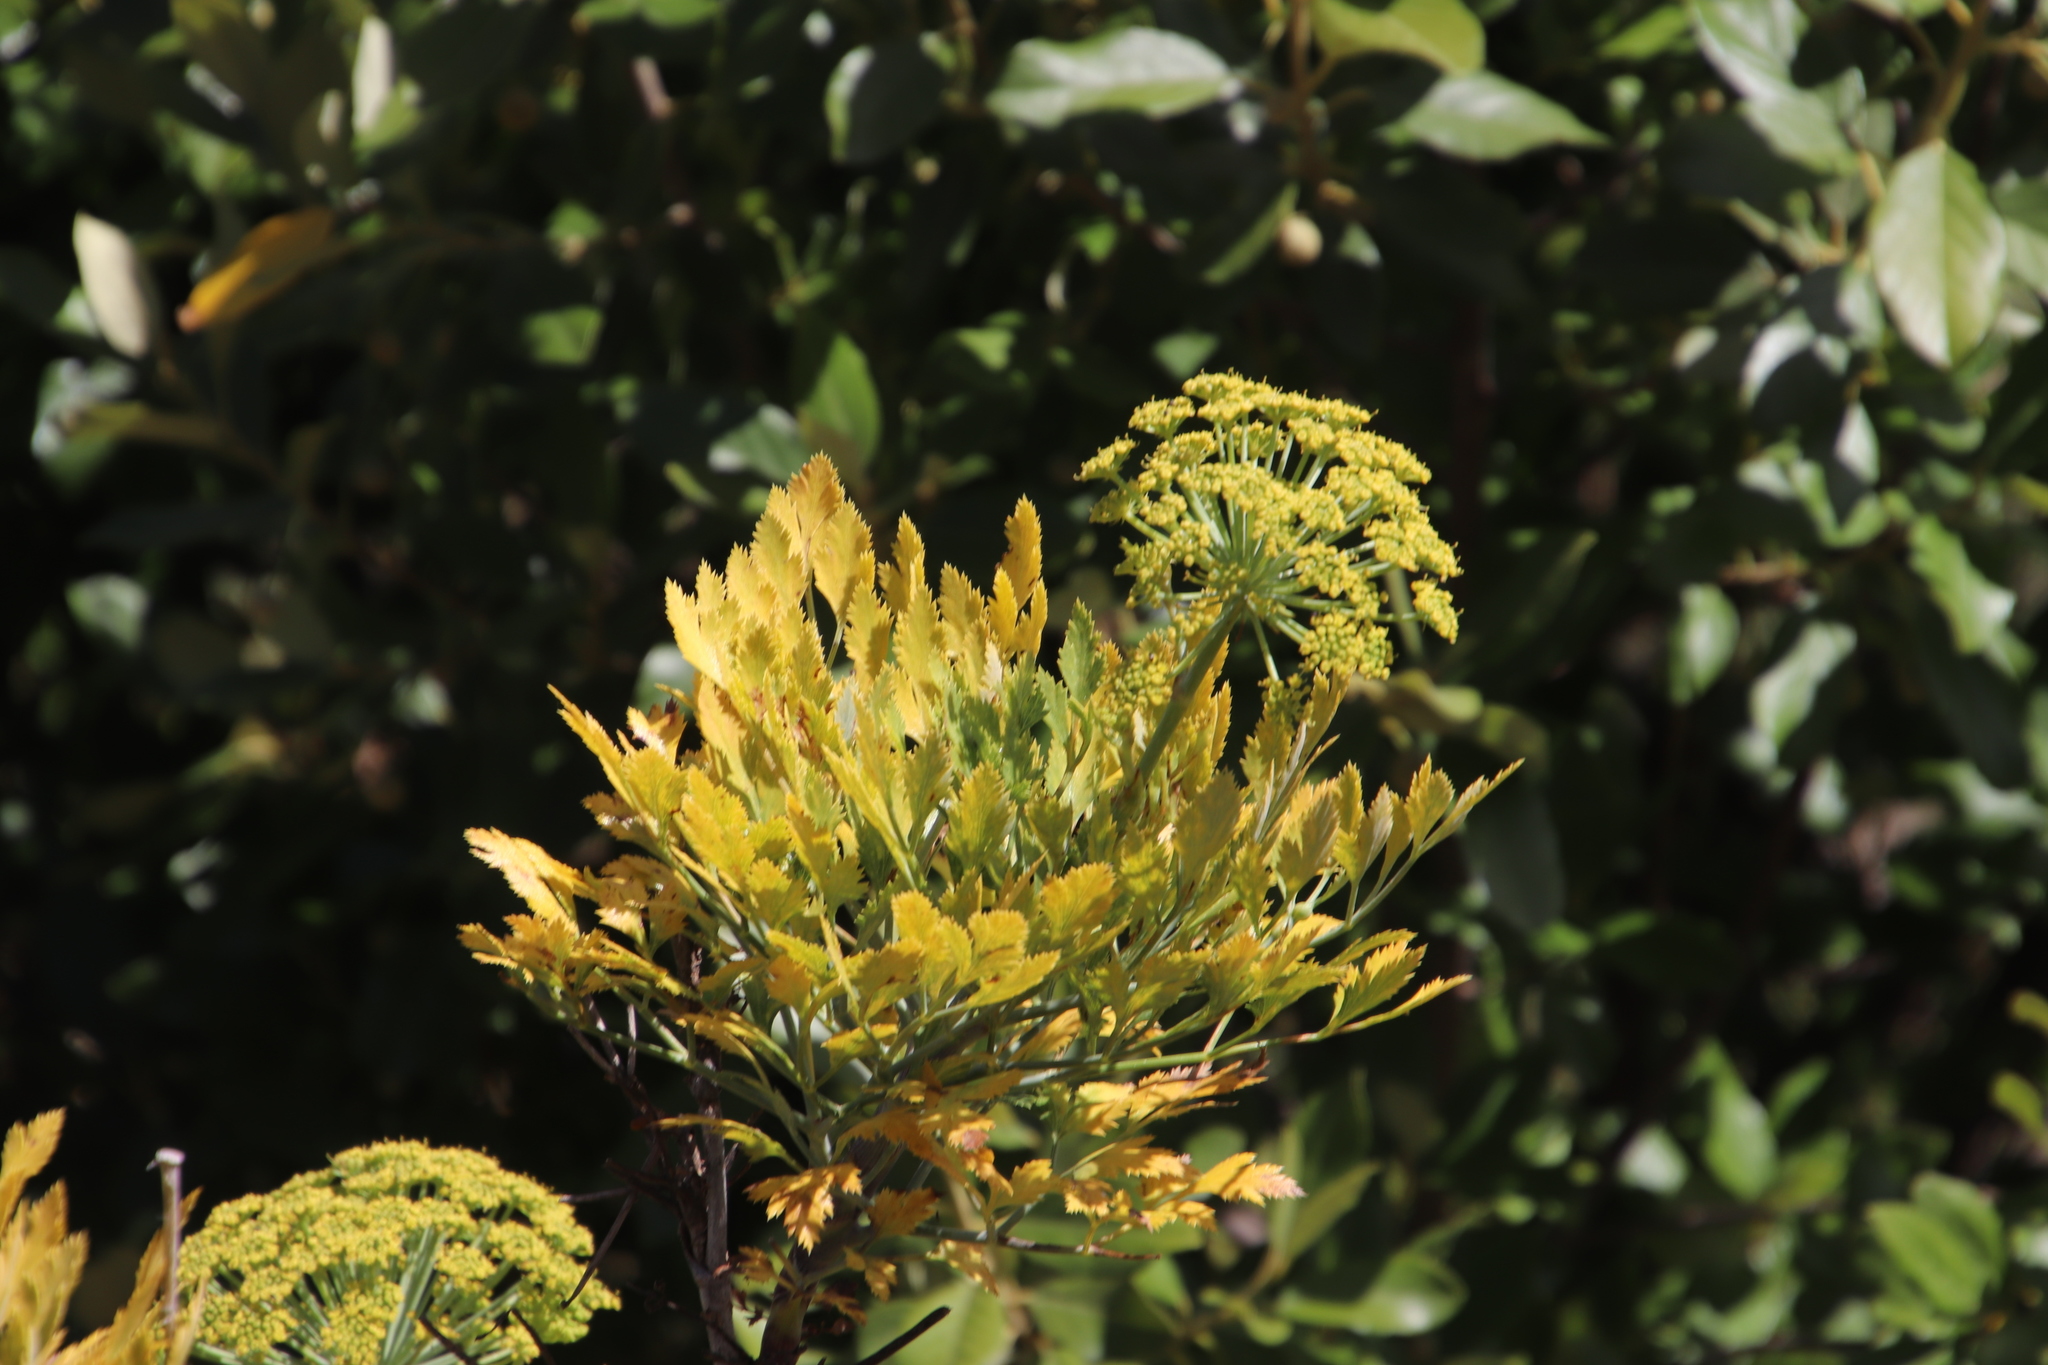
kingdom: Plantae
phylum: Tracheophyta
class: Magnoliopsida
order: Apiales
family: Apiaceae
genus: Notobubon
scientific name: Notobubon galbanum
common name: Blisterbush
